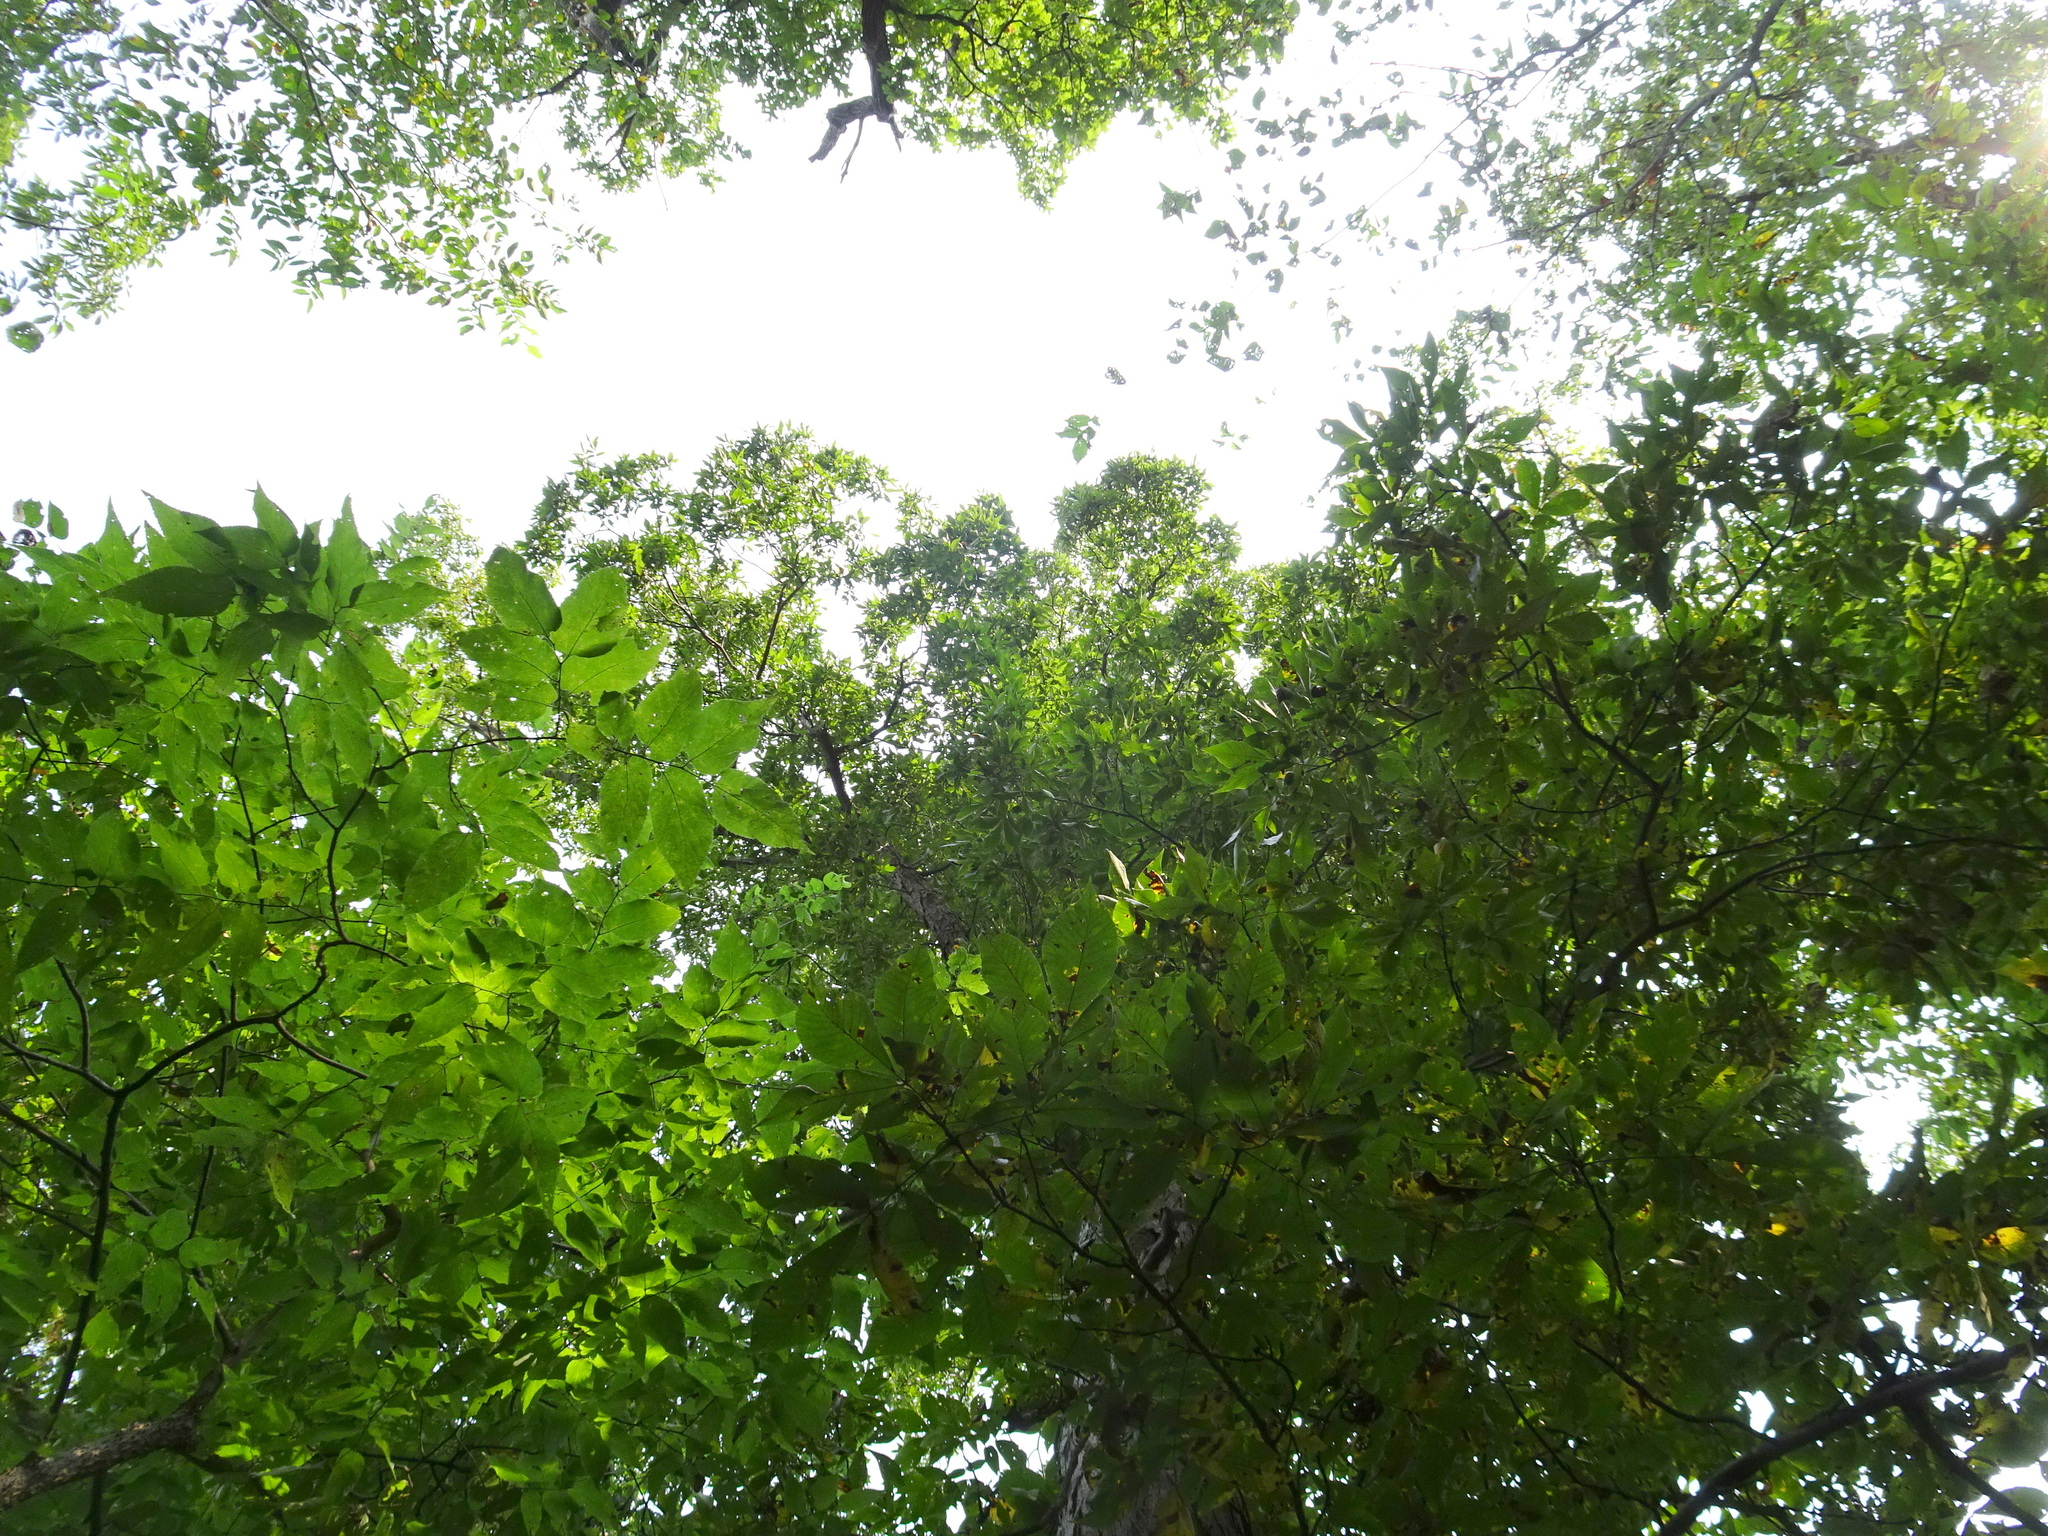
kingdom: Plantae
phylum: Tracheophyta
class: Magnoliopsida
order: Fagales
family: Juglandaceae
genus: Carya
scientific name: Carya ovata
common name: Shagbark hickory
